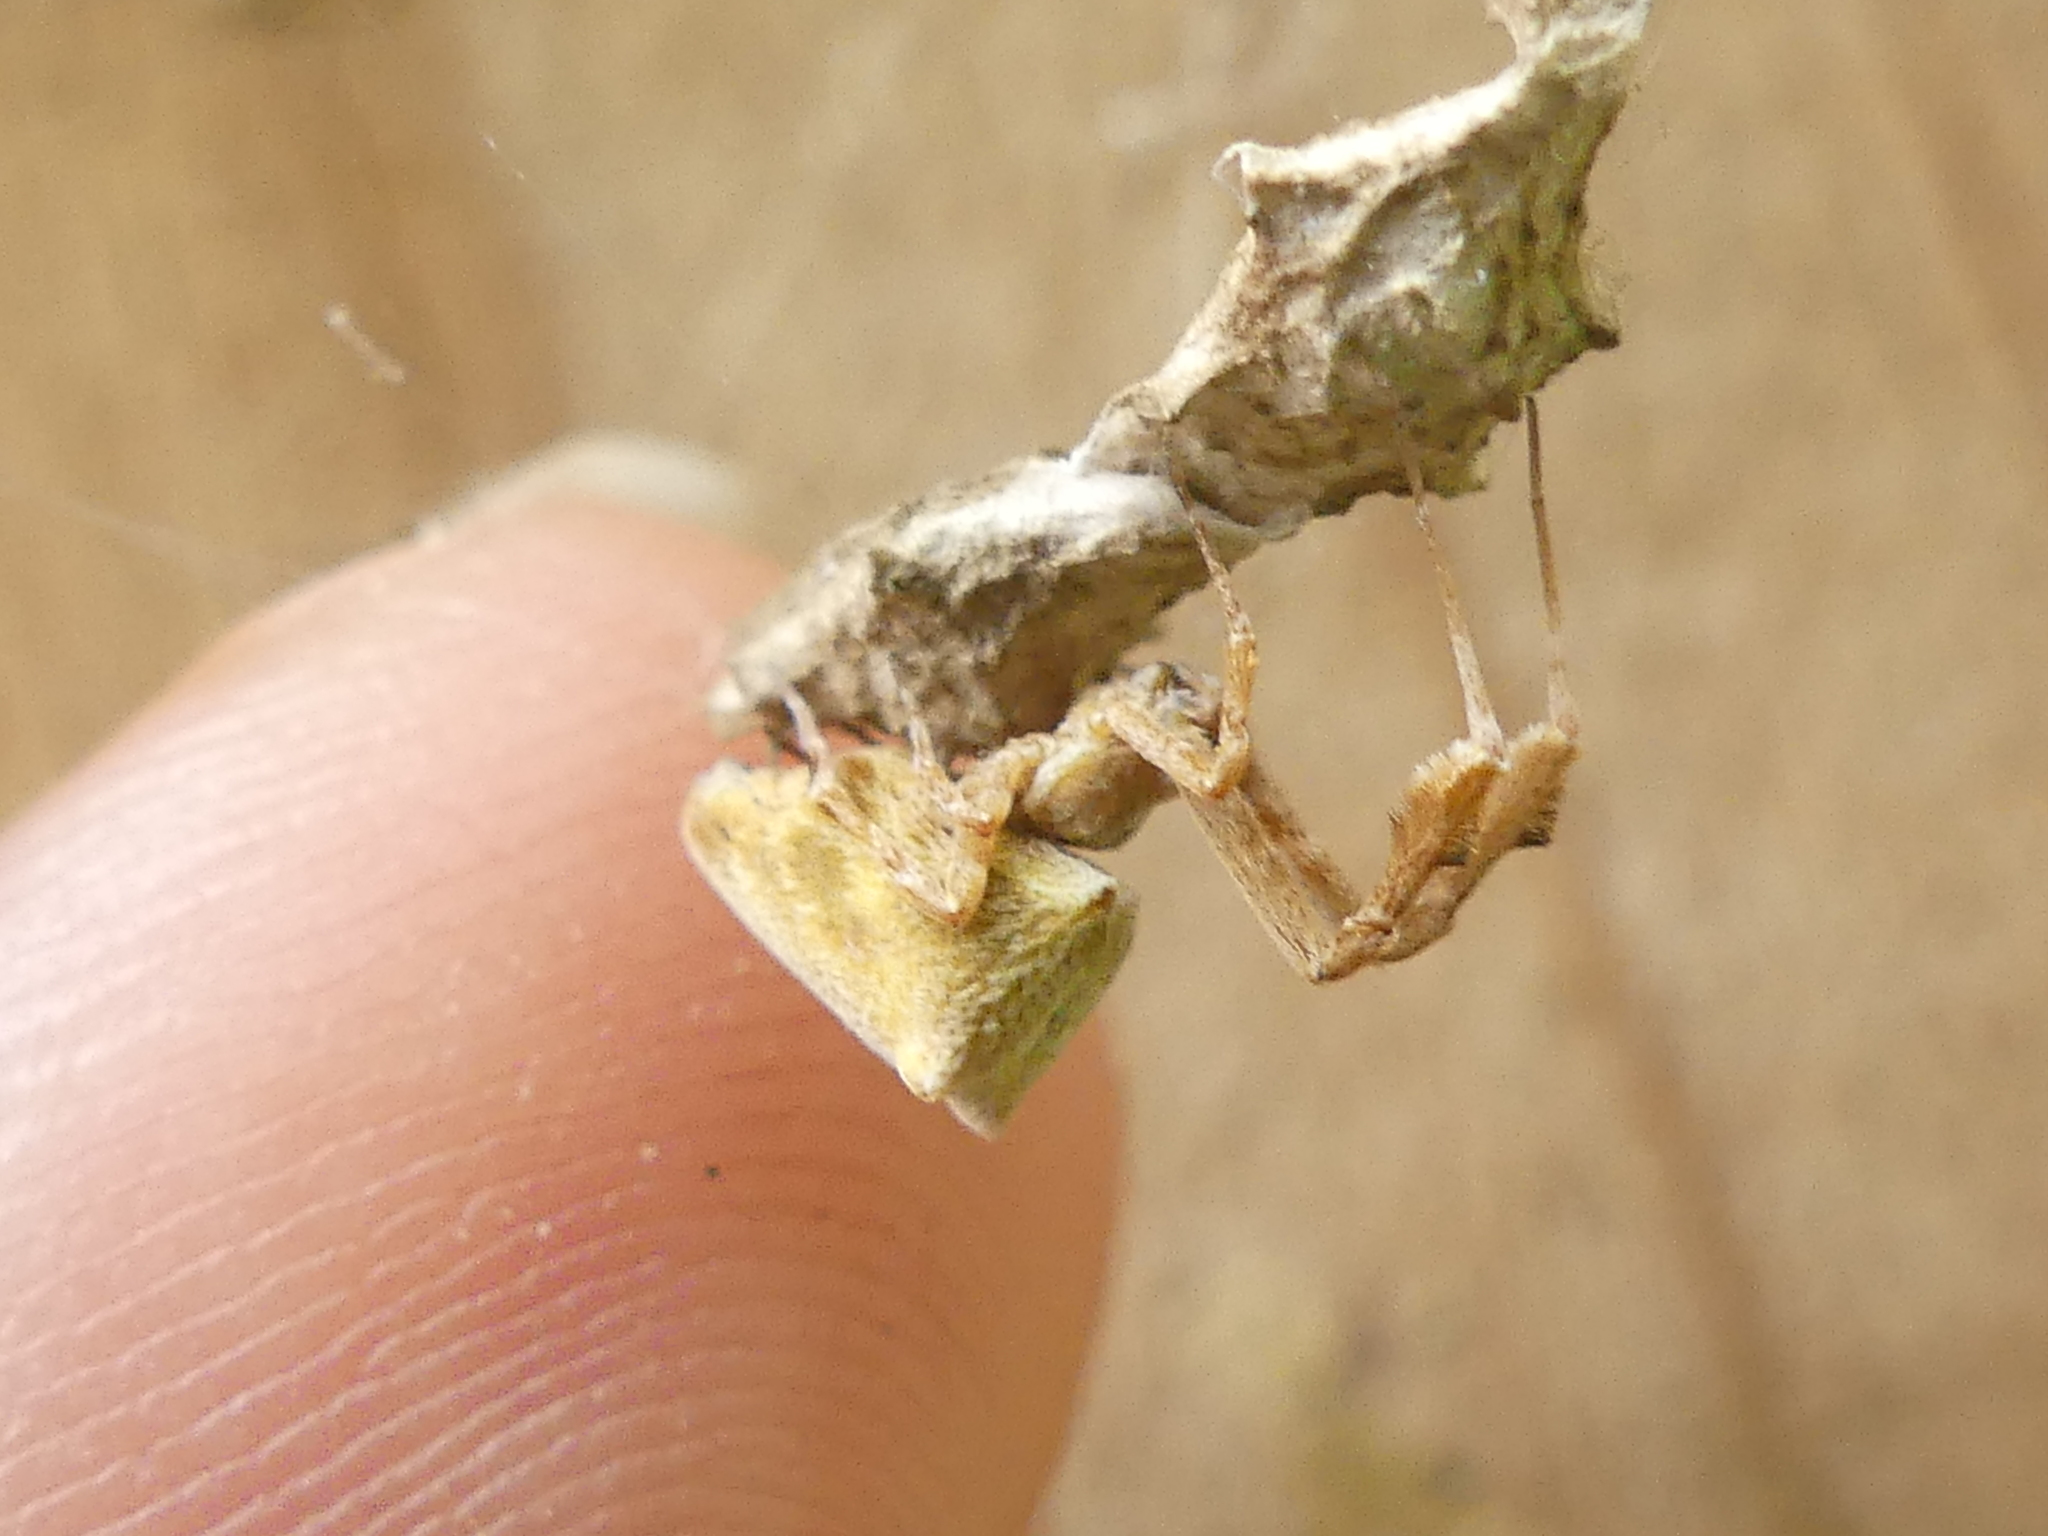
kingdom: Animalia
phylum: Arthropoda
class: Arachnida
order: Araneae
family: Uloboridae
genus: Uloborus
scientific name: Uloborus glomosus
